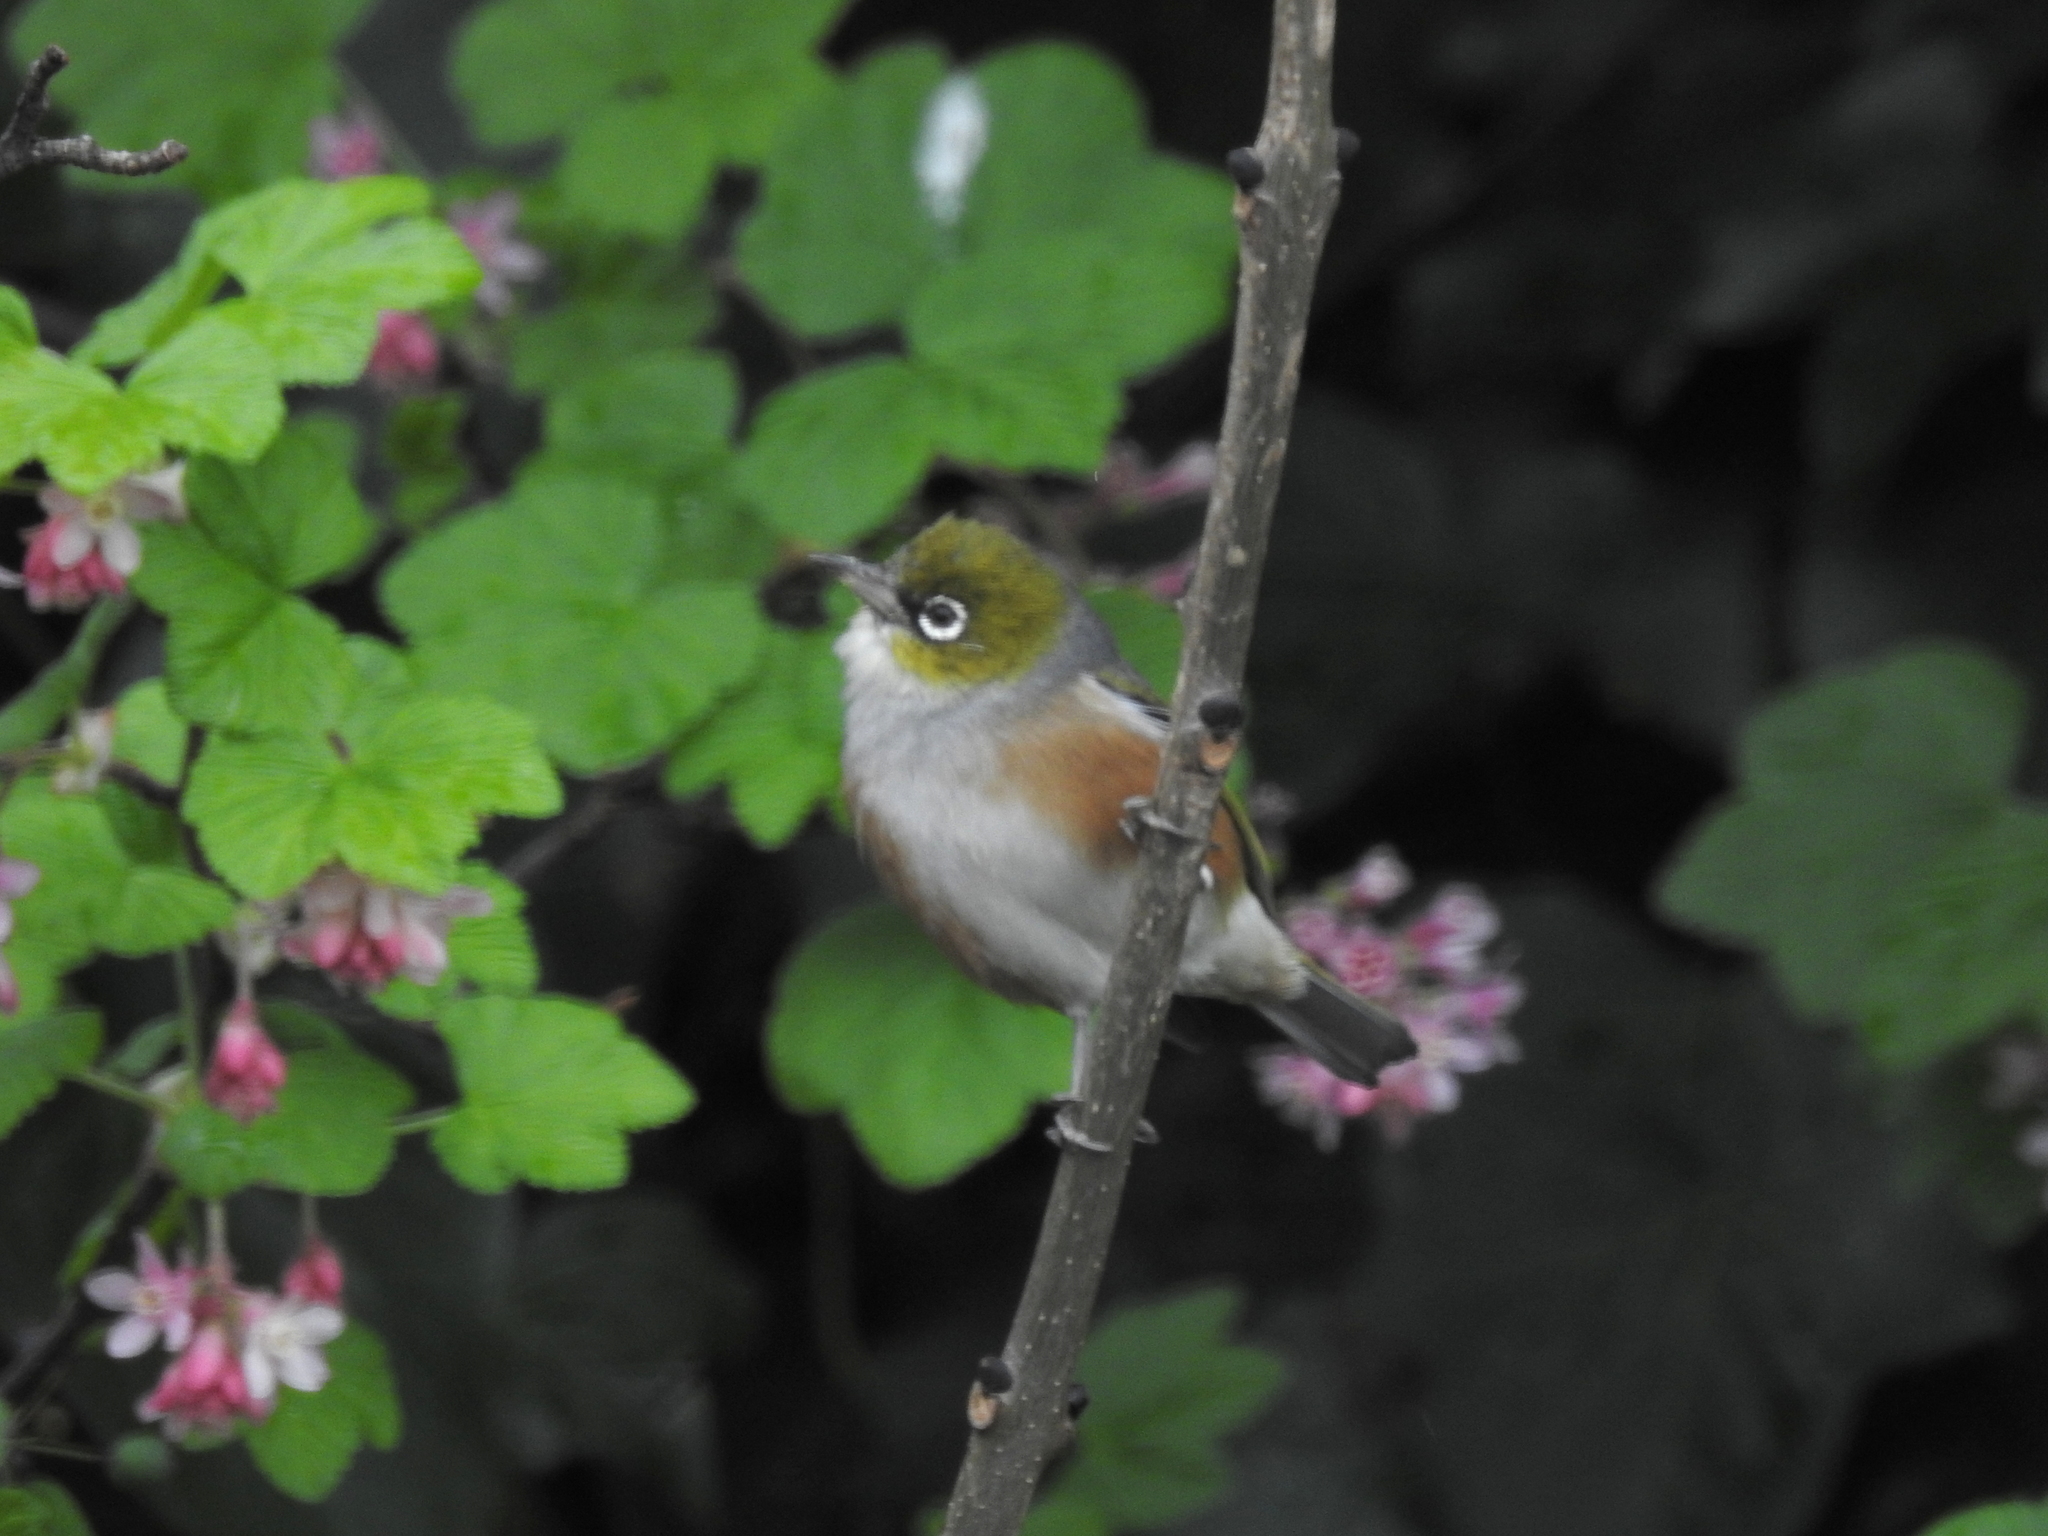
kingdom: Animalia
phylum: Chordata
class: Aves
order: Passeriformes
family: Zosteropidae
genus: Zosterops
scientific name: Zosterops lateralis
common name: Silvereye
